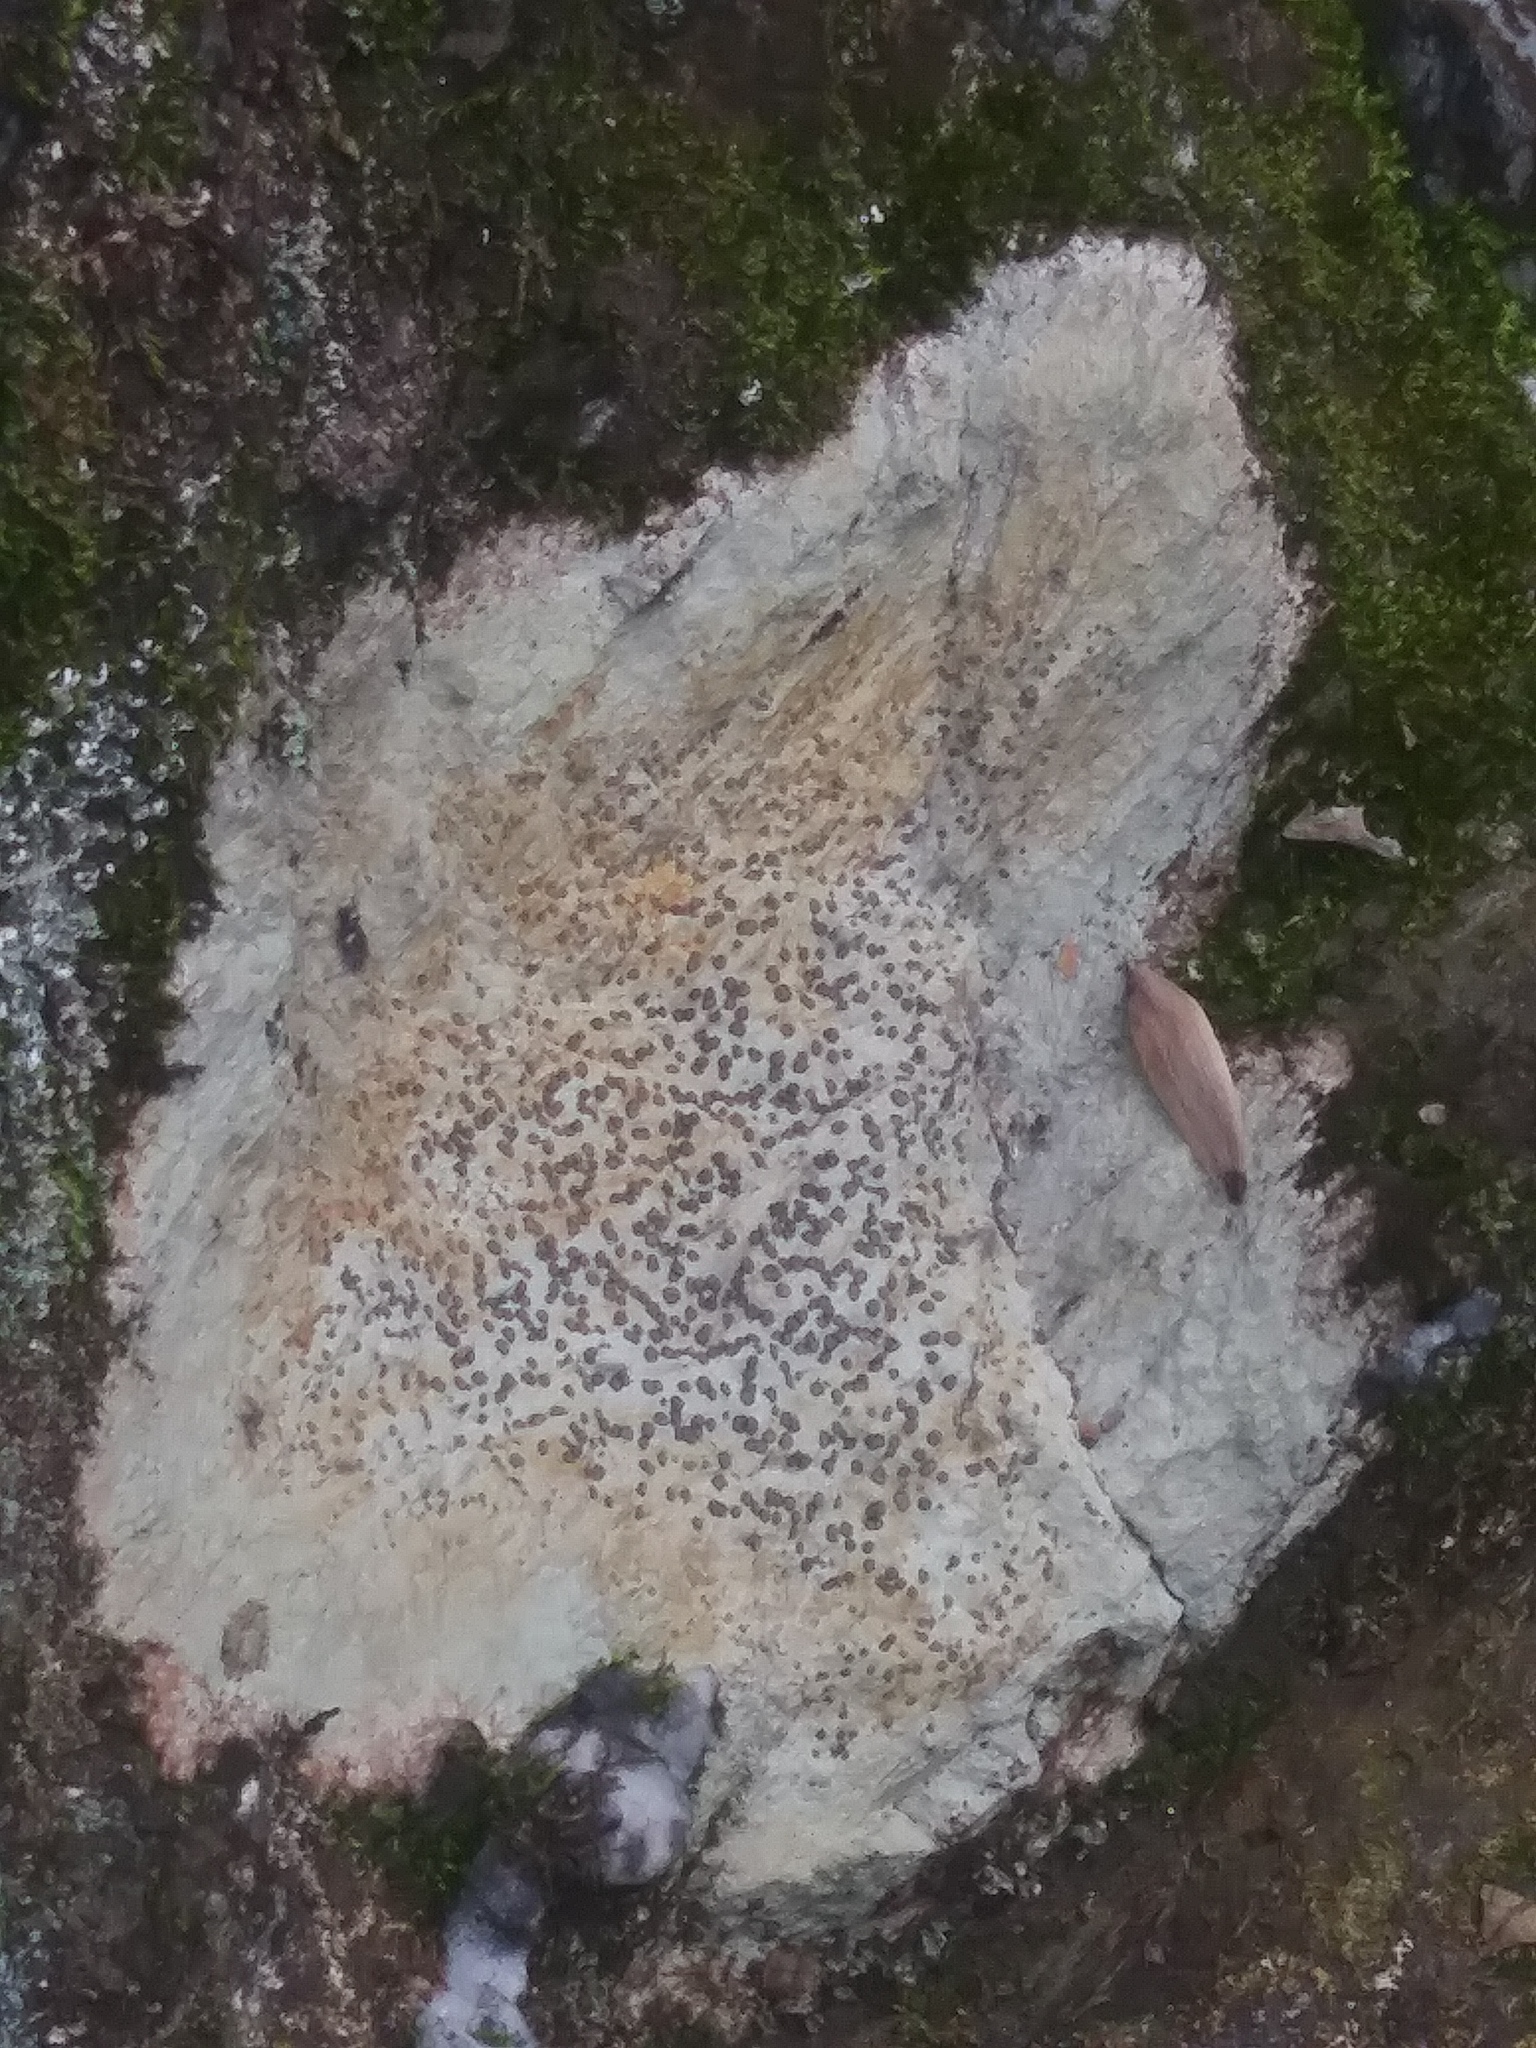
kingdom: Fungi
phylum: Ascomycota
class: Lecanoromycetes
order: Lecideales
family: Lecideaceae
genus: Porpidia
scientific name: Porpidia albocaerulescens
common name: Smokey-eyed boulder lichen
